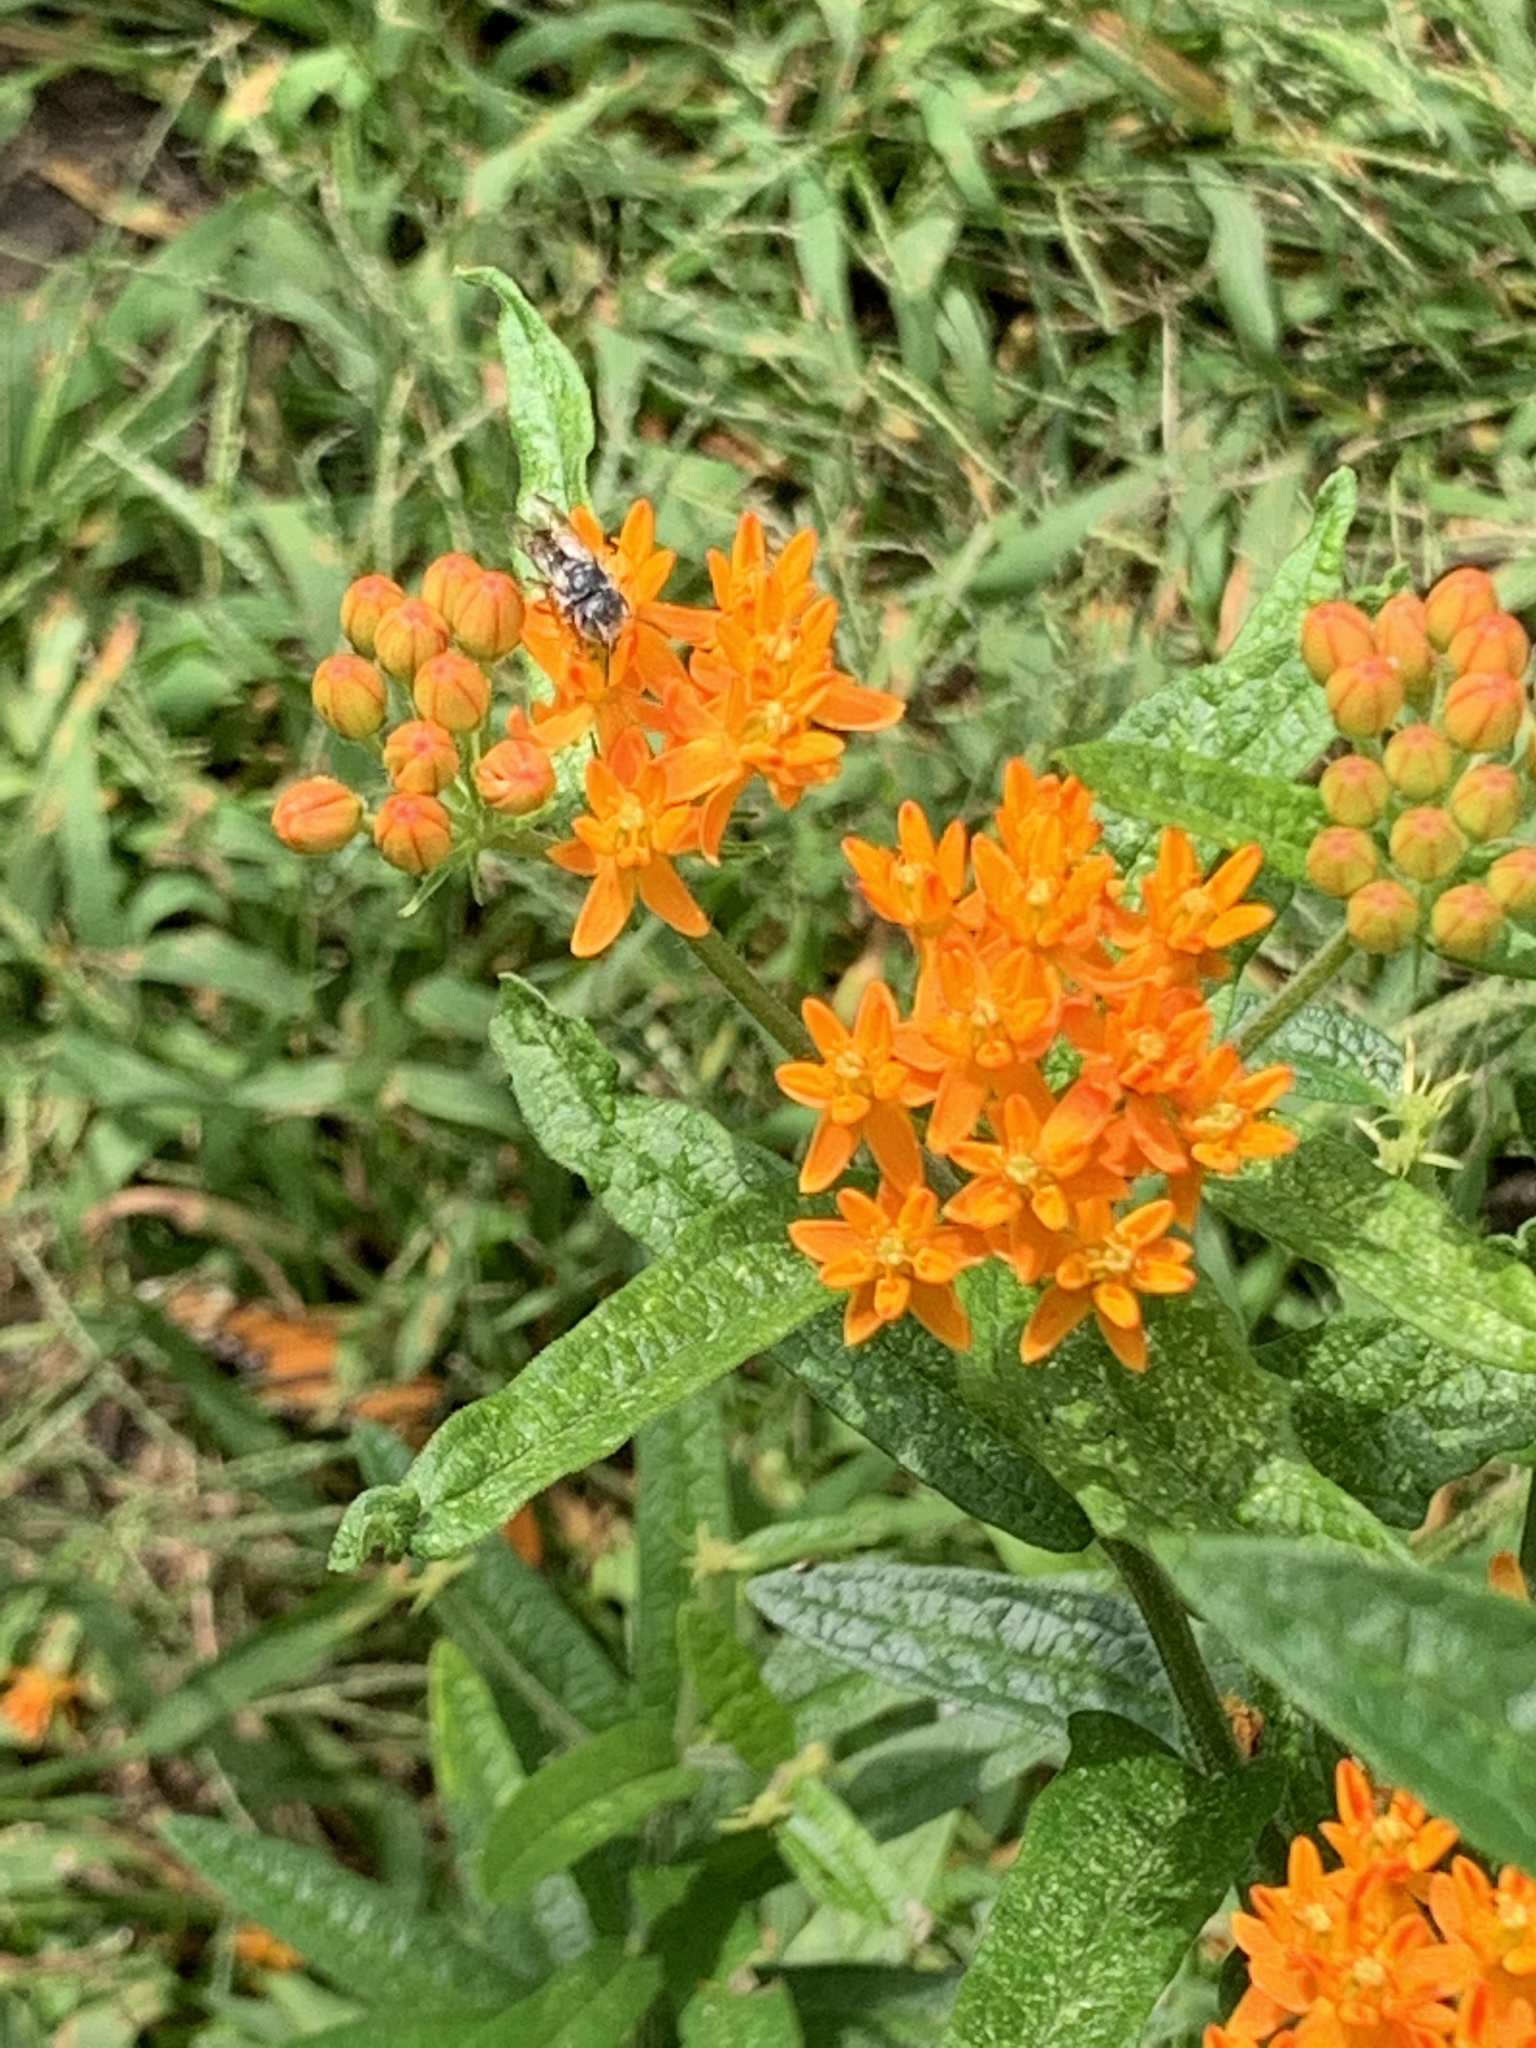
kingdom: Plantae
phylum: Tracheophyta
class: Magnoliopsida
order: Gentianales
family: Apocynaceae
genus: Asclepias
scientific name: Asclepias tuberosa
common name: Butterfly milkweed
